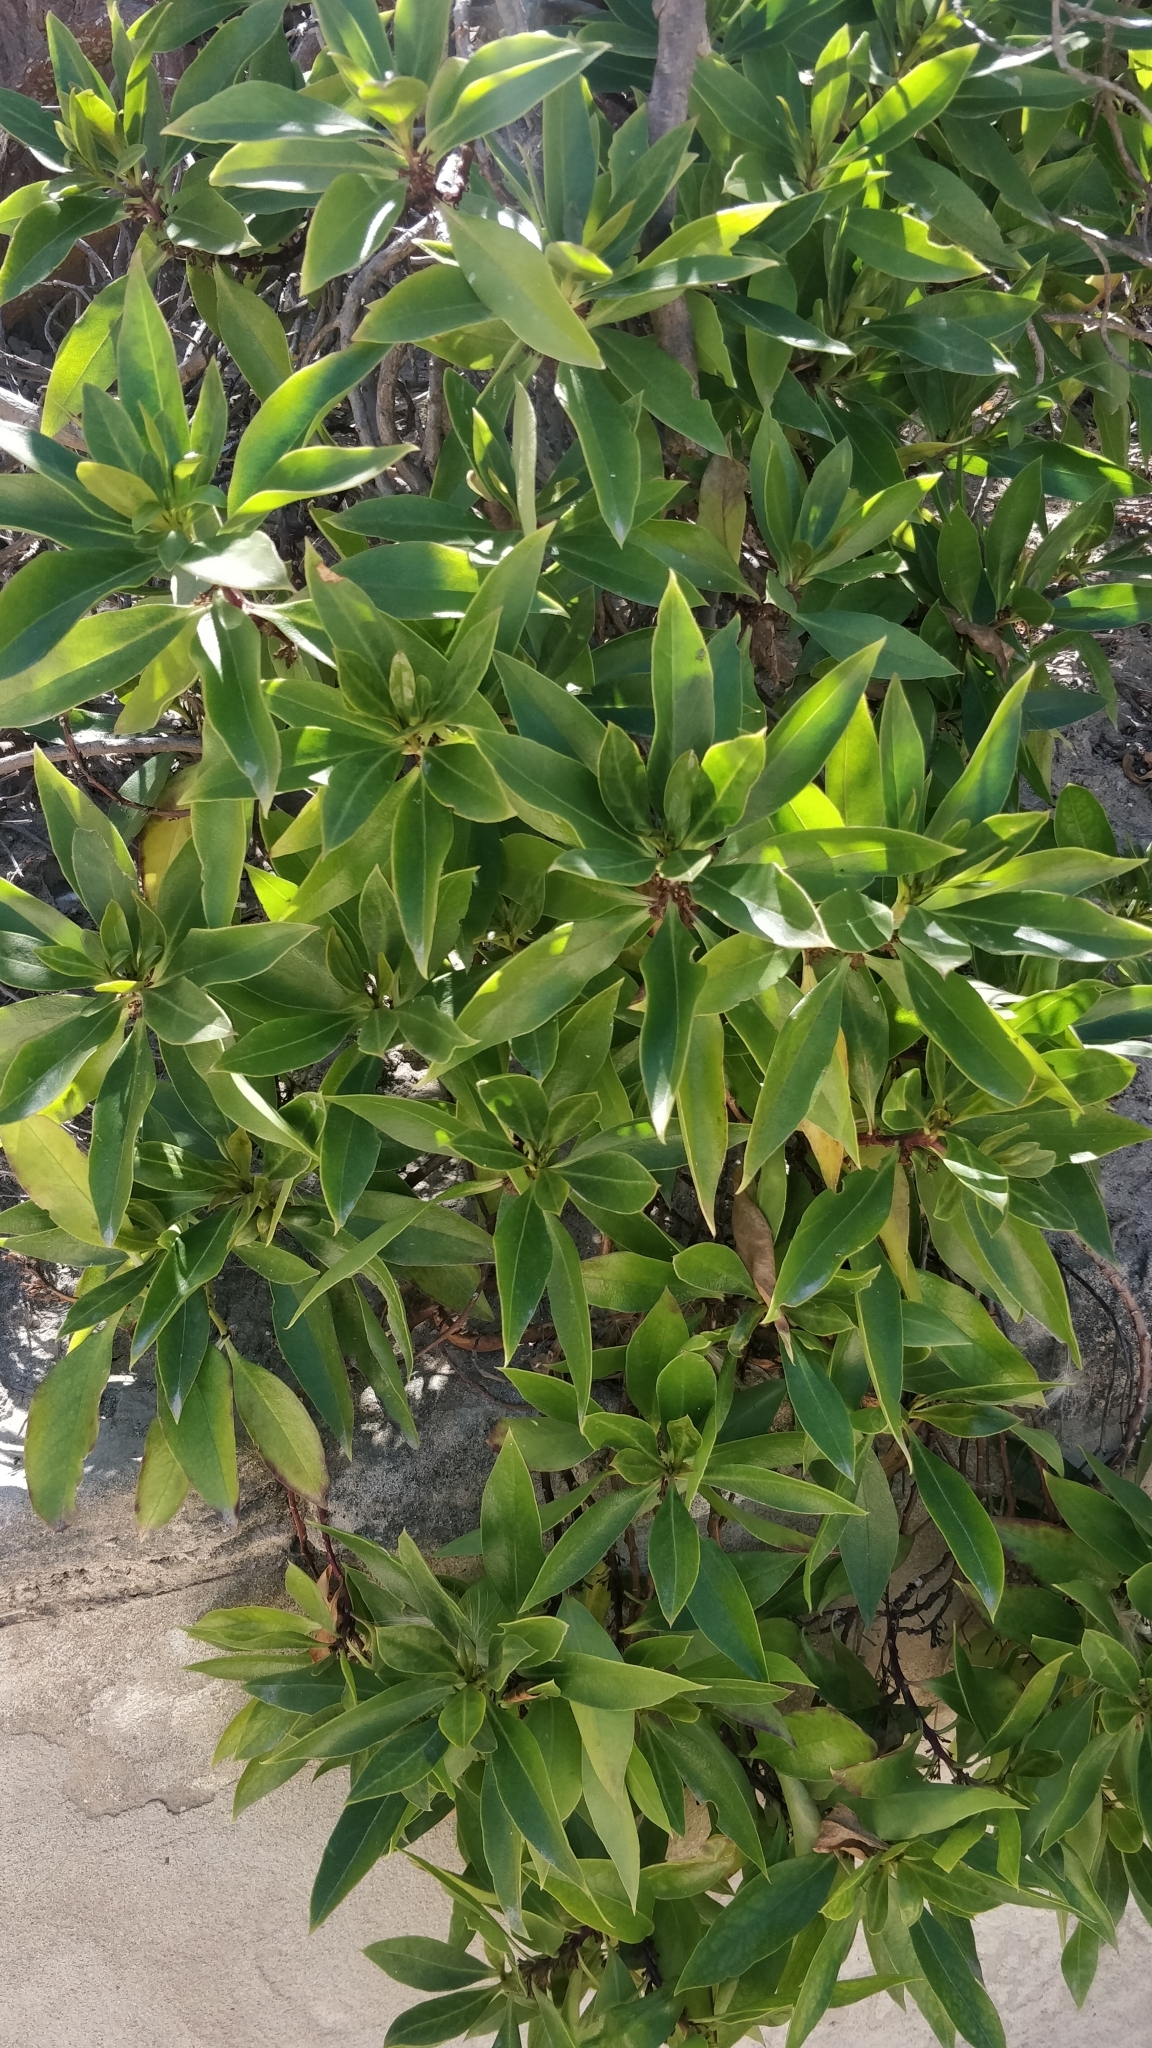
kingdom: Plantae
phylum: Tracheophyta
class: Magnoliopsida
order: Lamiales
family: Scrophulariaceae
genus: Myoporum
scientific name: Myoporum laetum
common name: Ngaio tree
